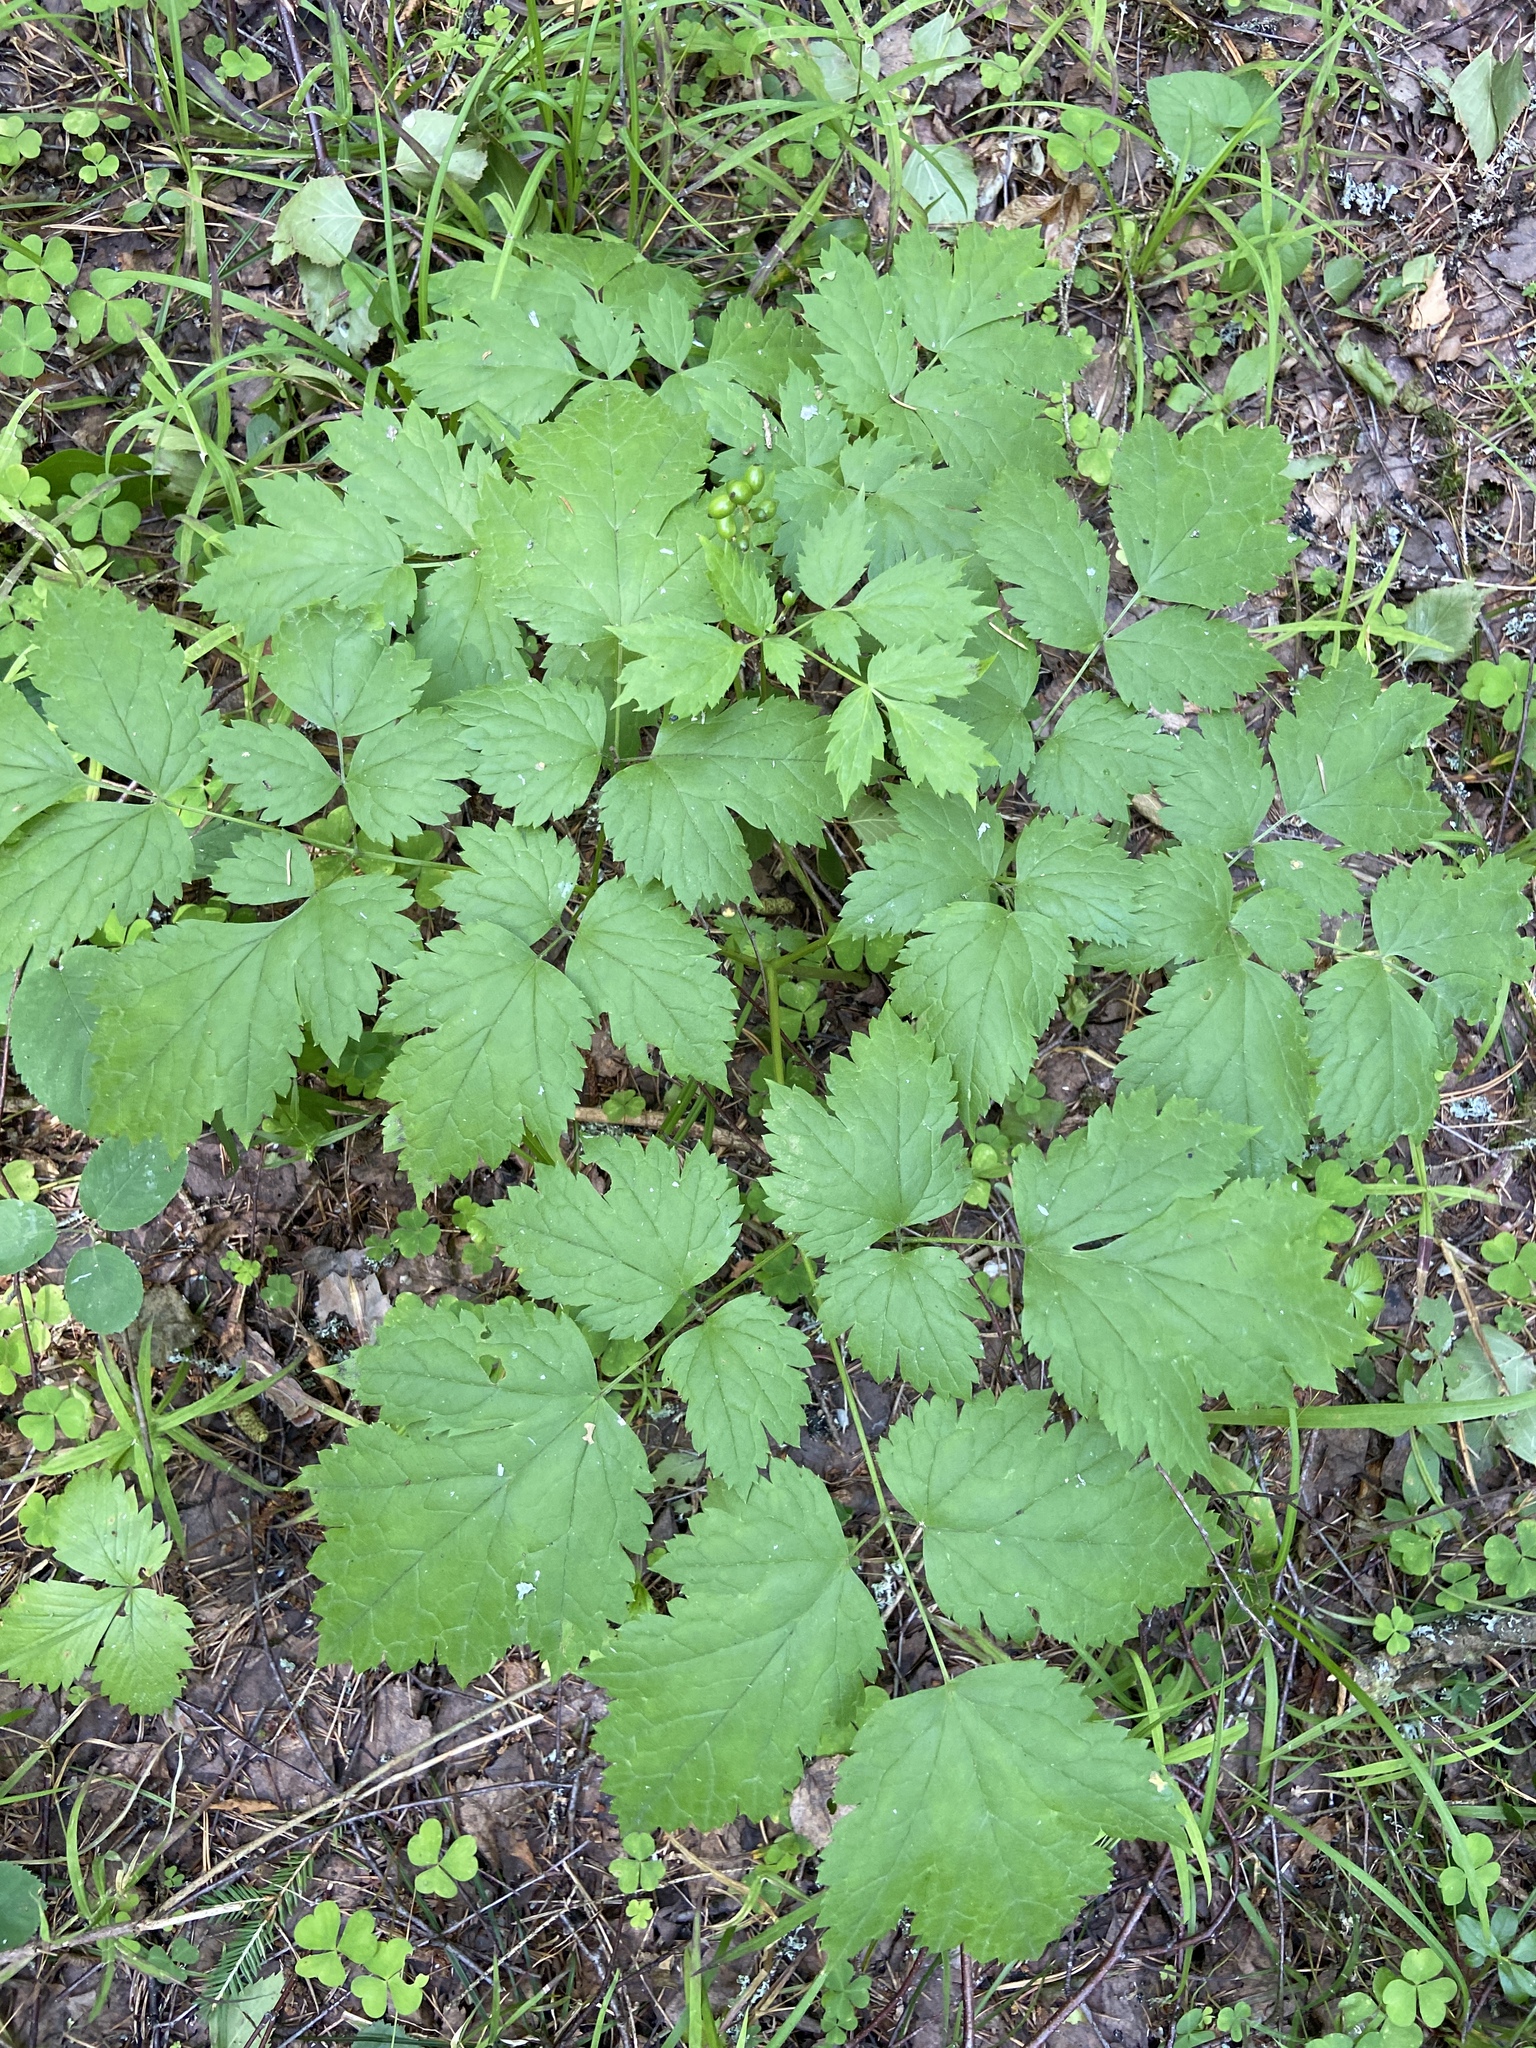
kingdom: Plantae
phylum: Tracheophyta
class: Magnoliopsida
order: Ranunculales
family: Ranunculaceae
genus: Actaea
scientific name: Actaea spicata
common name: Baneberry
